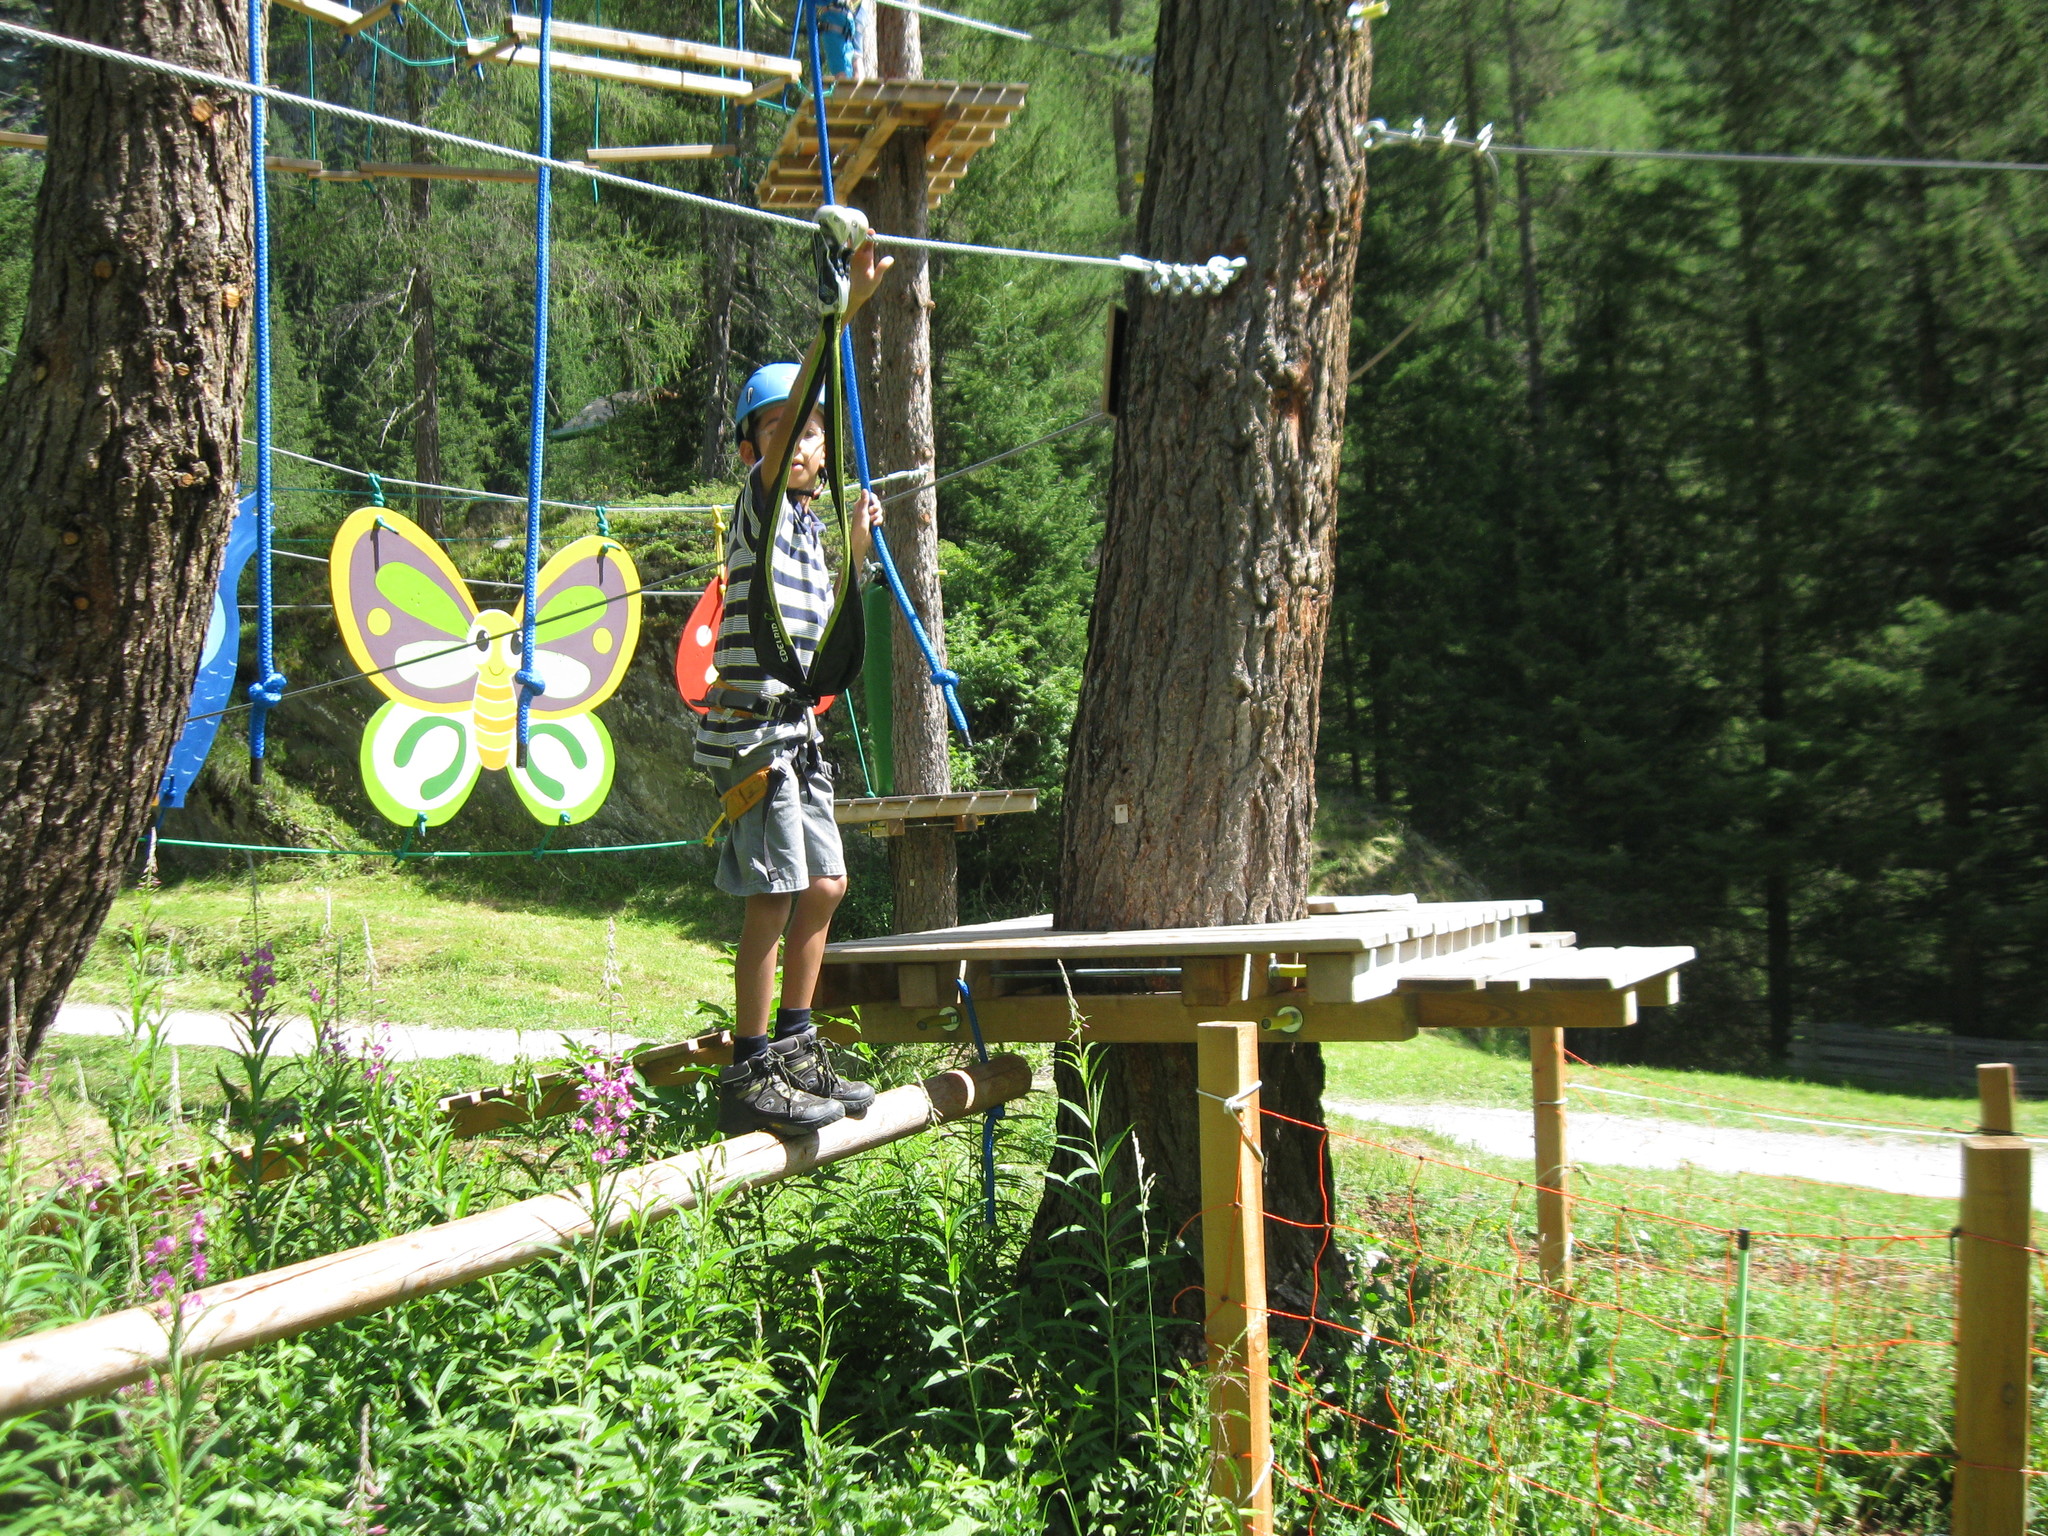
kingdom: Plantae
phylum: Tracheophyta
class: Magnoliopsida
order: Myrtales
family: Onagraceae
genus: Chamaenerion
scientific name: Chamaenerion angustifolium
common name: Fireweed
